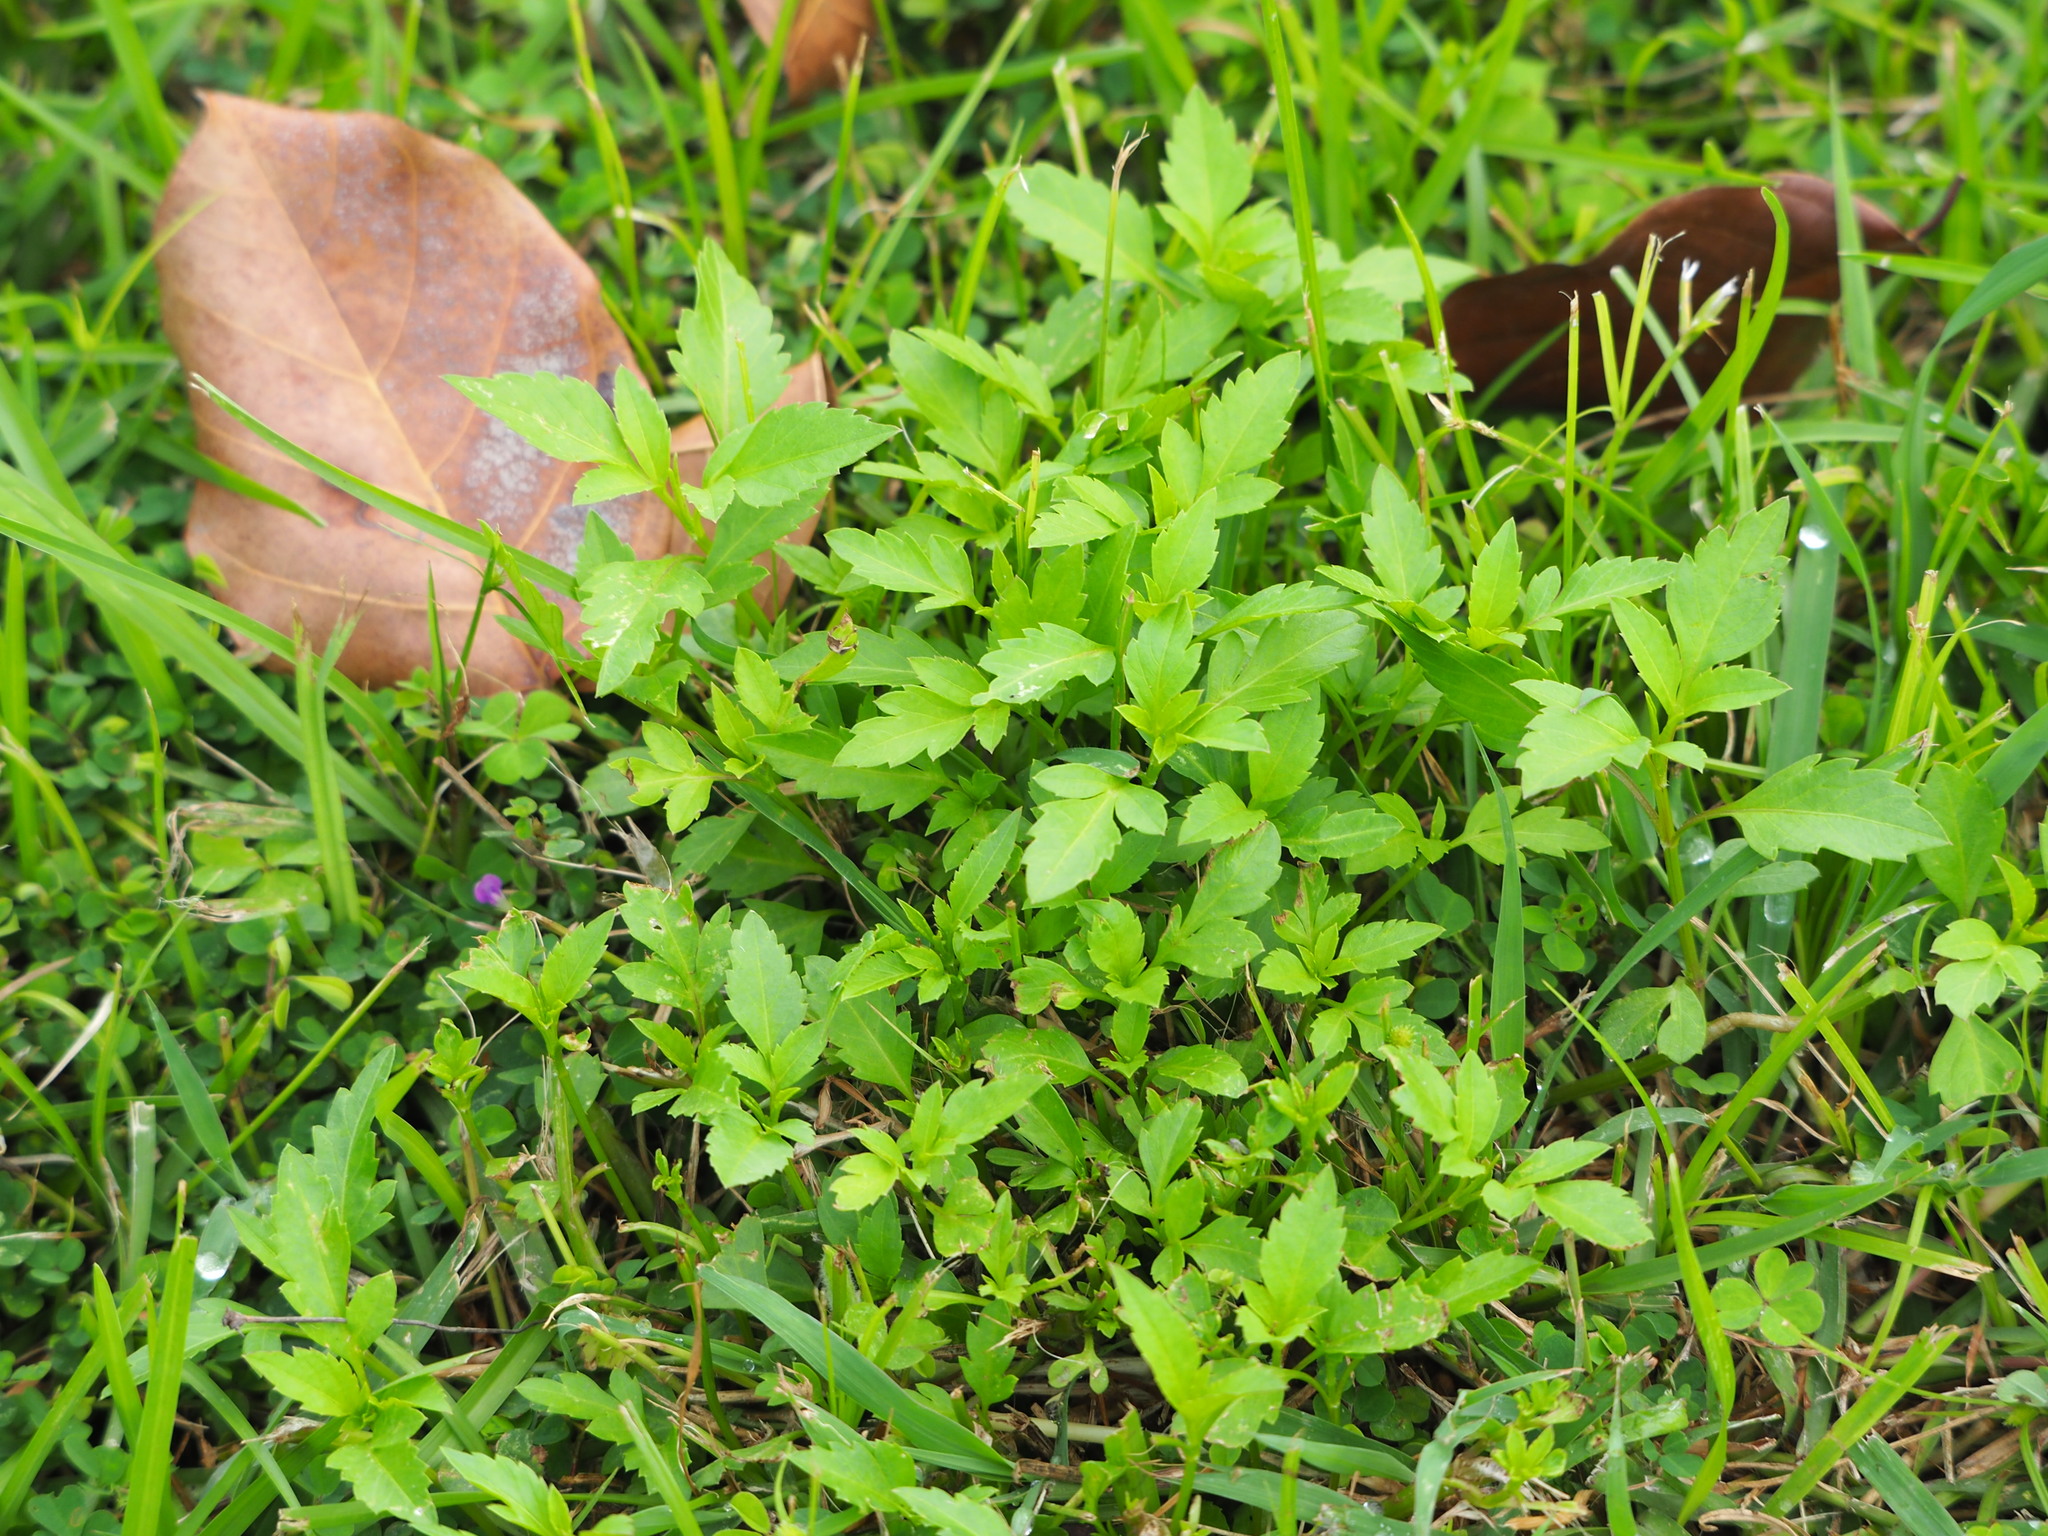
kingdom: Plantae
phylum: Tracheophyta
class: Magnoliopsida
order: Asterales
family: Asteraceae
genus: Bidens
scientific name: Bidens alba
